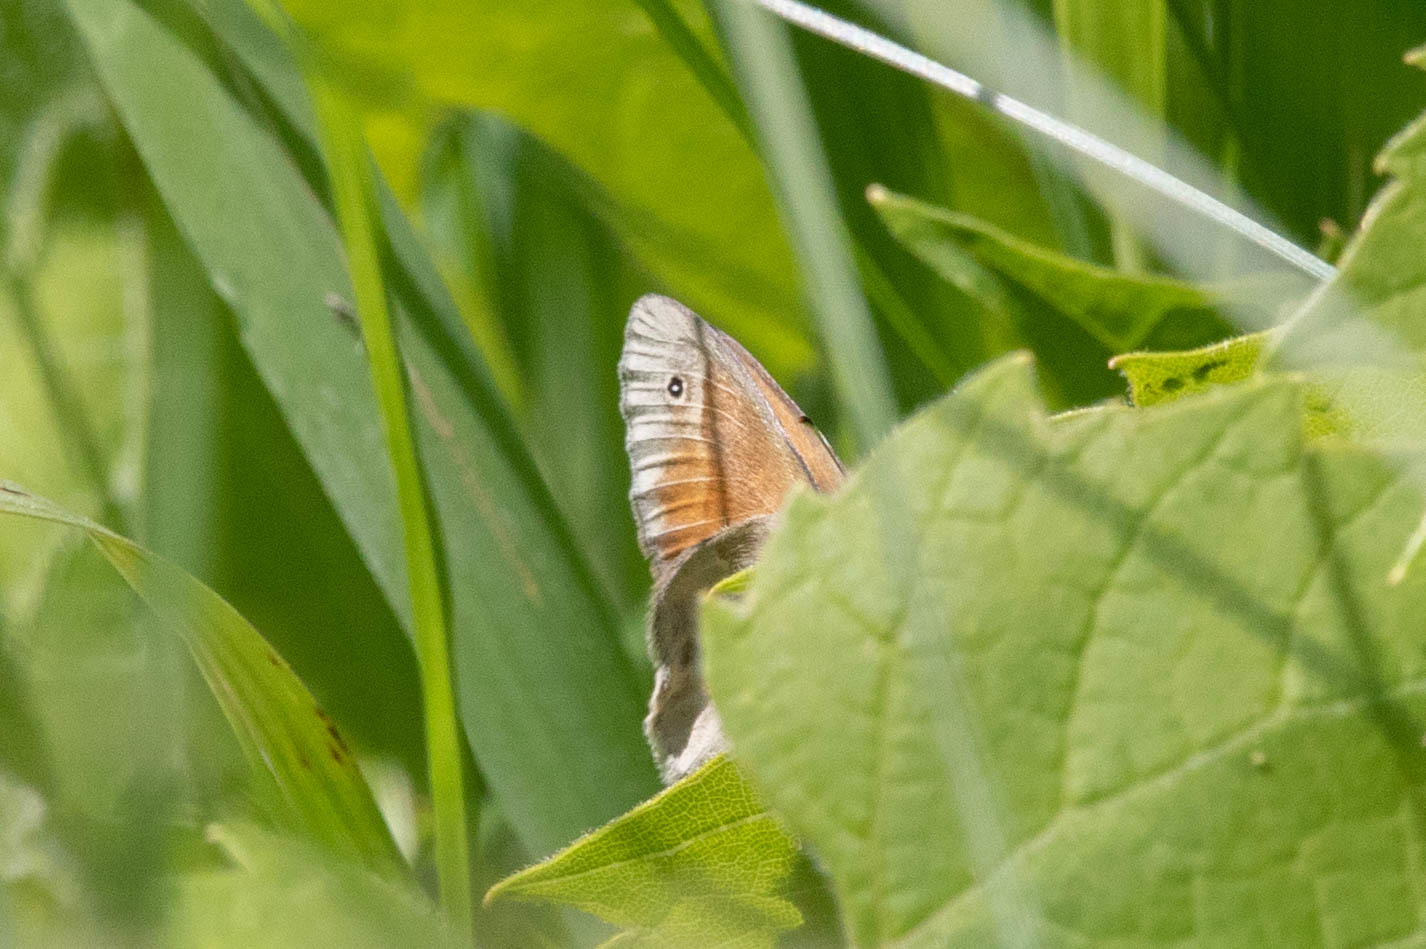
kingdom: Animalia
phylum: Arthropoda
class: Insecta
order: Lepidoptera
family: Nymphalidae
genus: Coenonympha
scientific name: Coenonympha california
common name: Common ringlet
